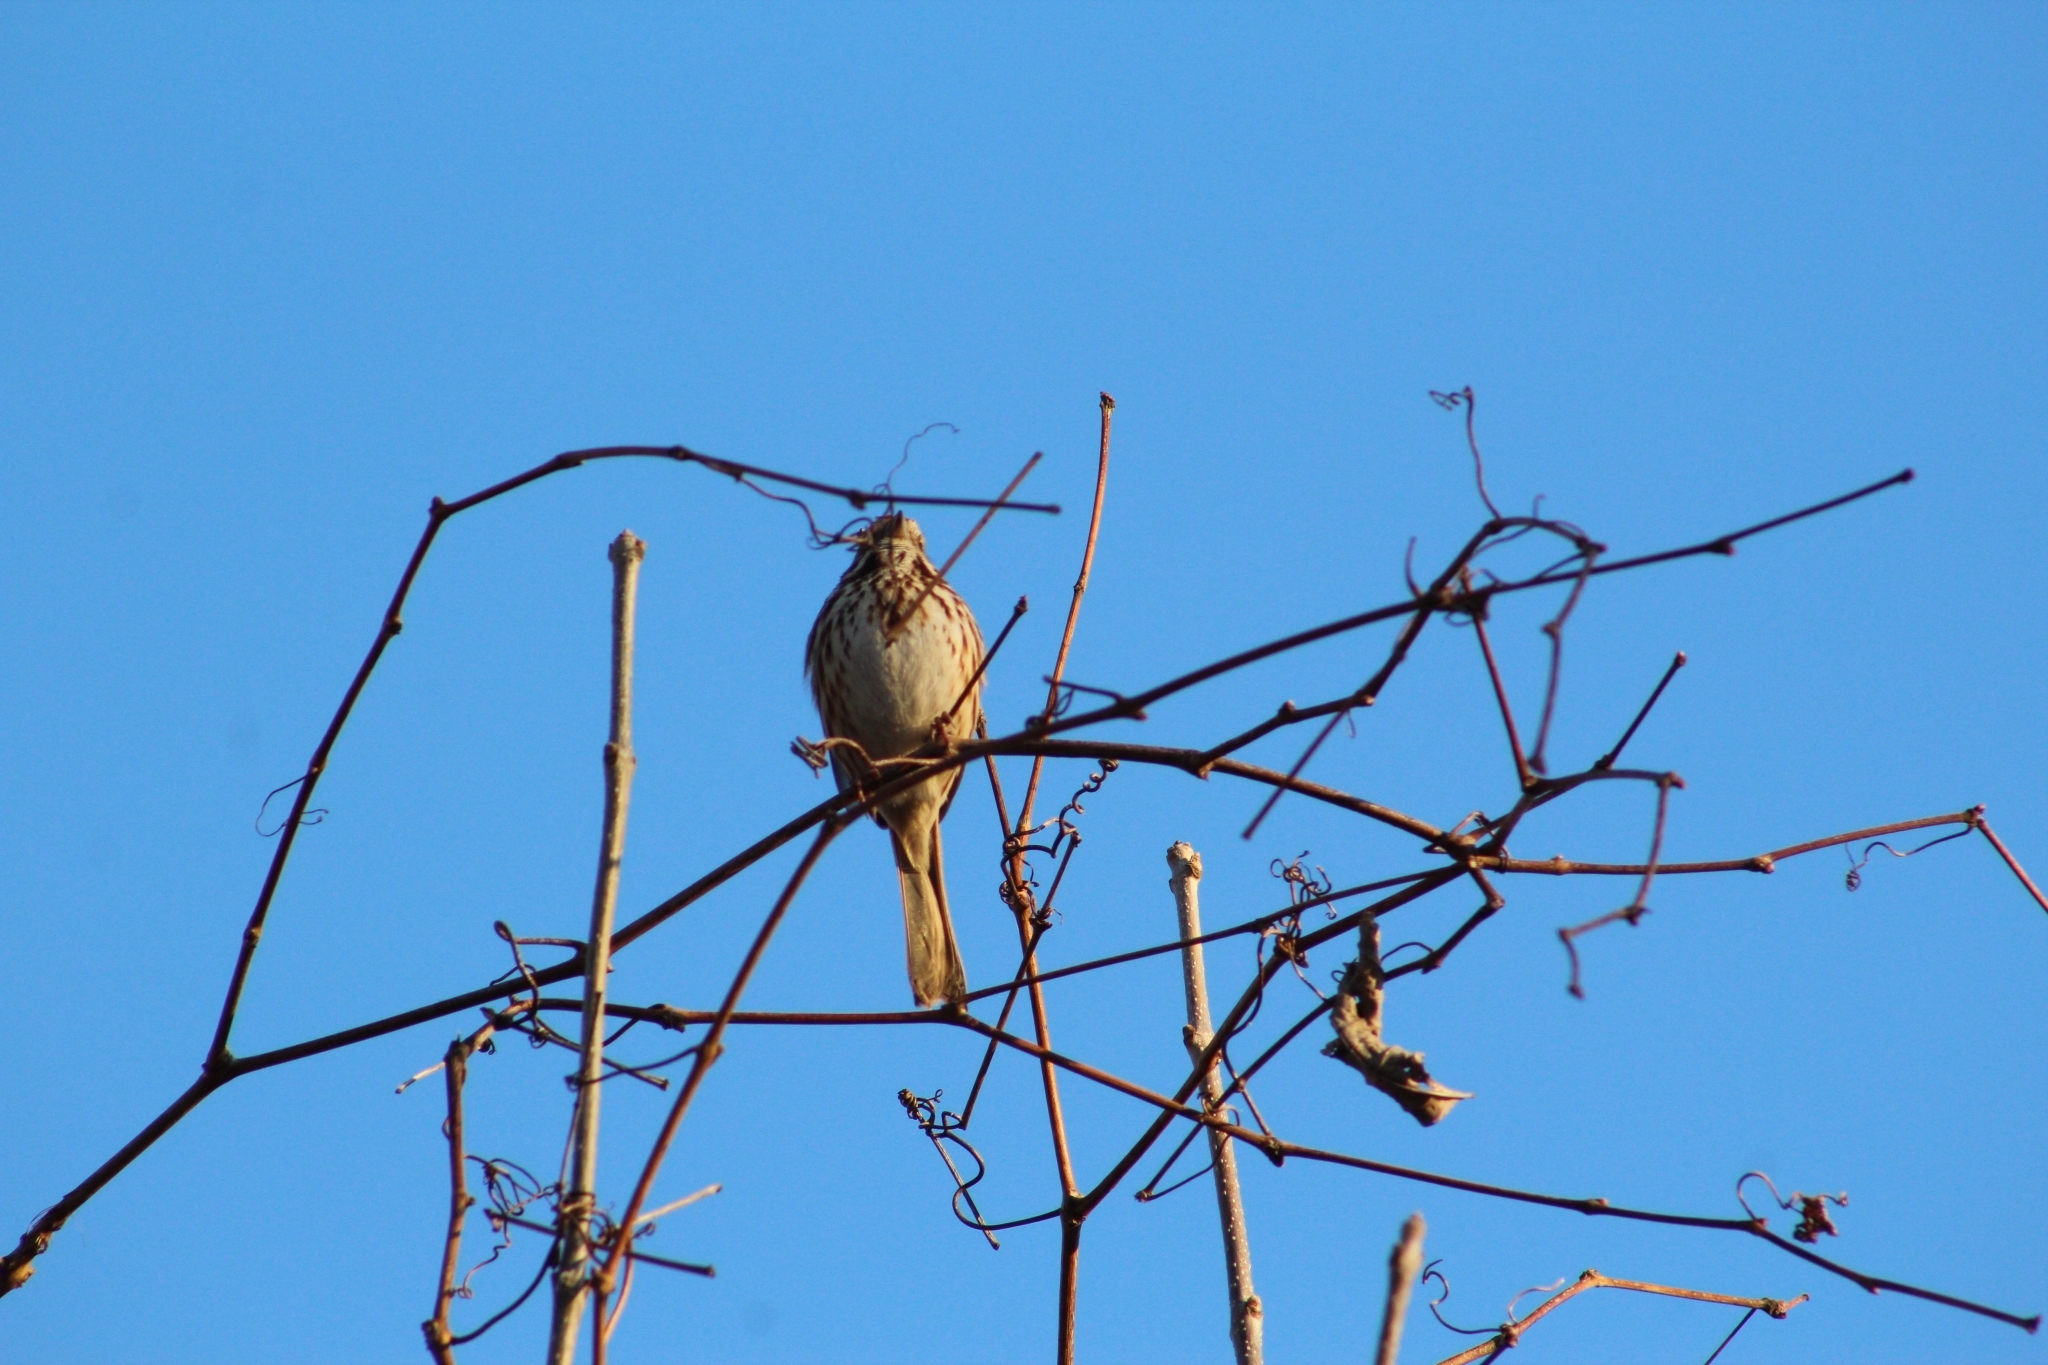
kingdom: Animalia
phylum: Chordata
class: Aves
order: Passeriformes
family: Passerellidae
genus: Melospiza
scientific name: Melospiza melodia
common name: Song sparrow
